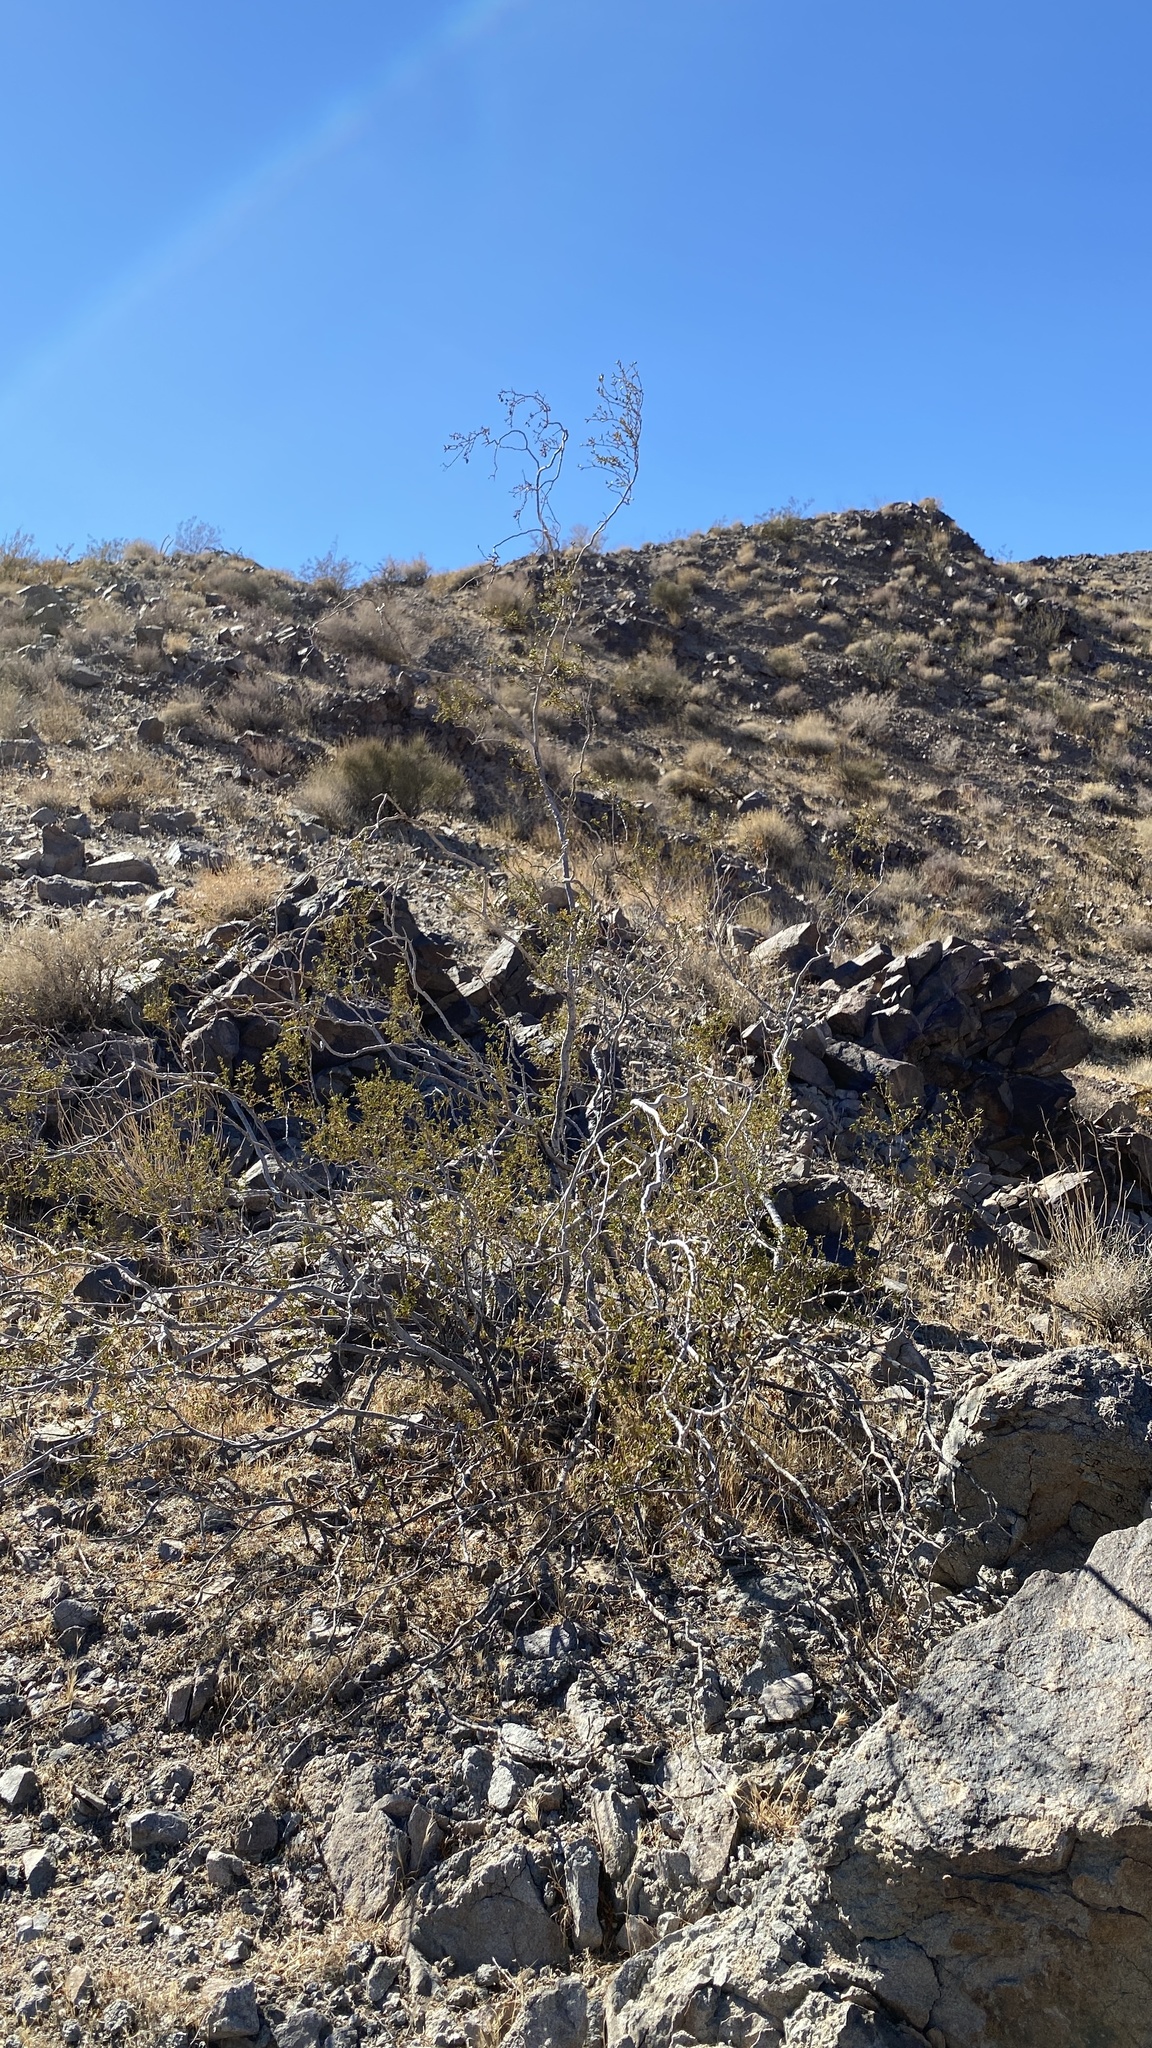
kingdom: Plantae
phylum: Tracheophyta
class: Magnoliopsida
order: Zygophyllales
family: Zygophyllaceae
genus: Larrea
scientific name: Larrea tridentata
